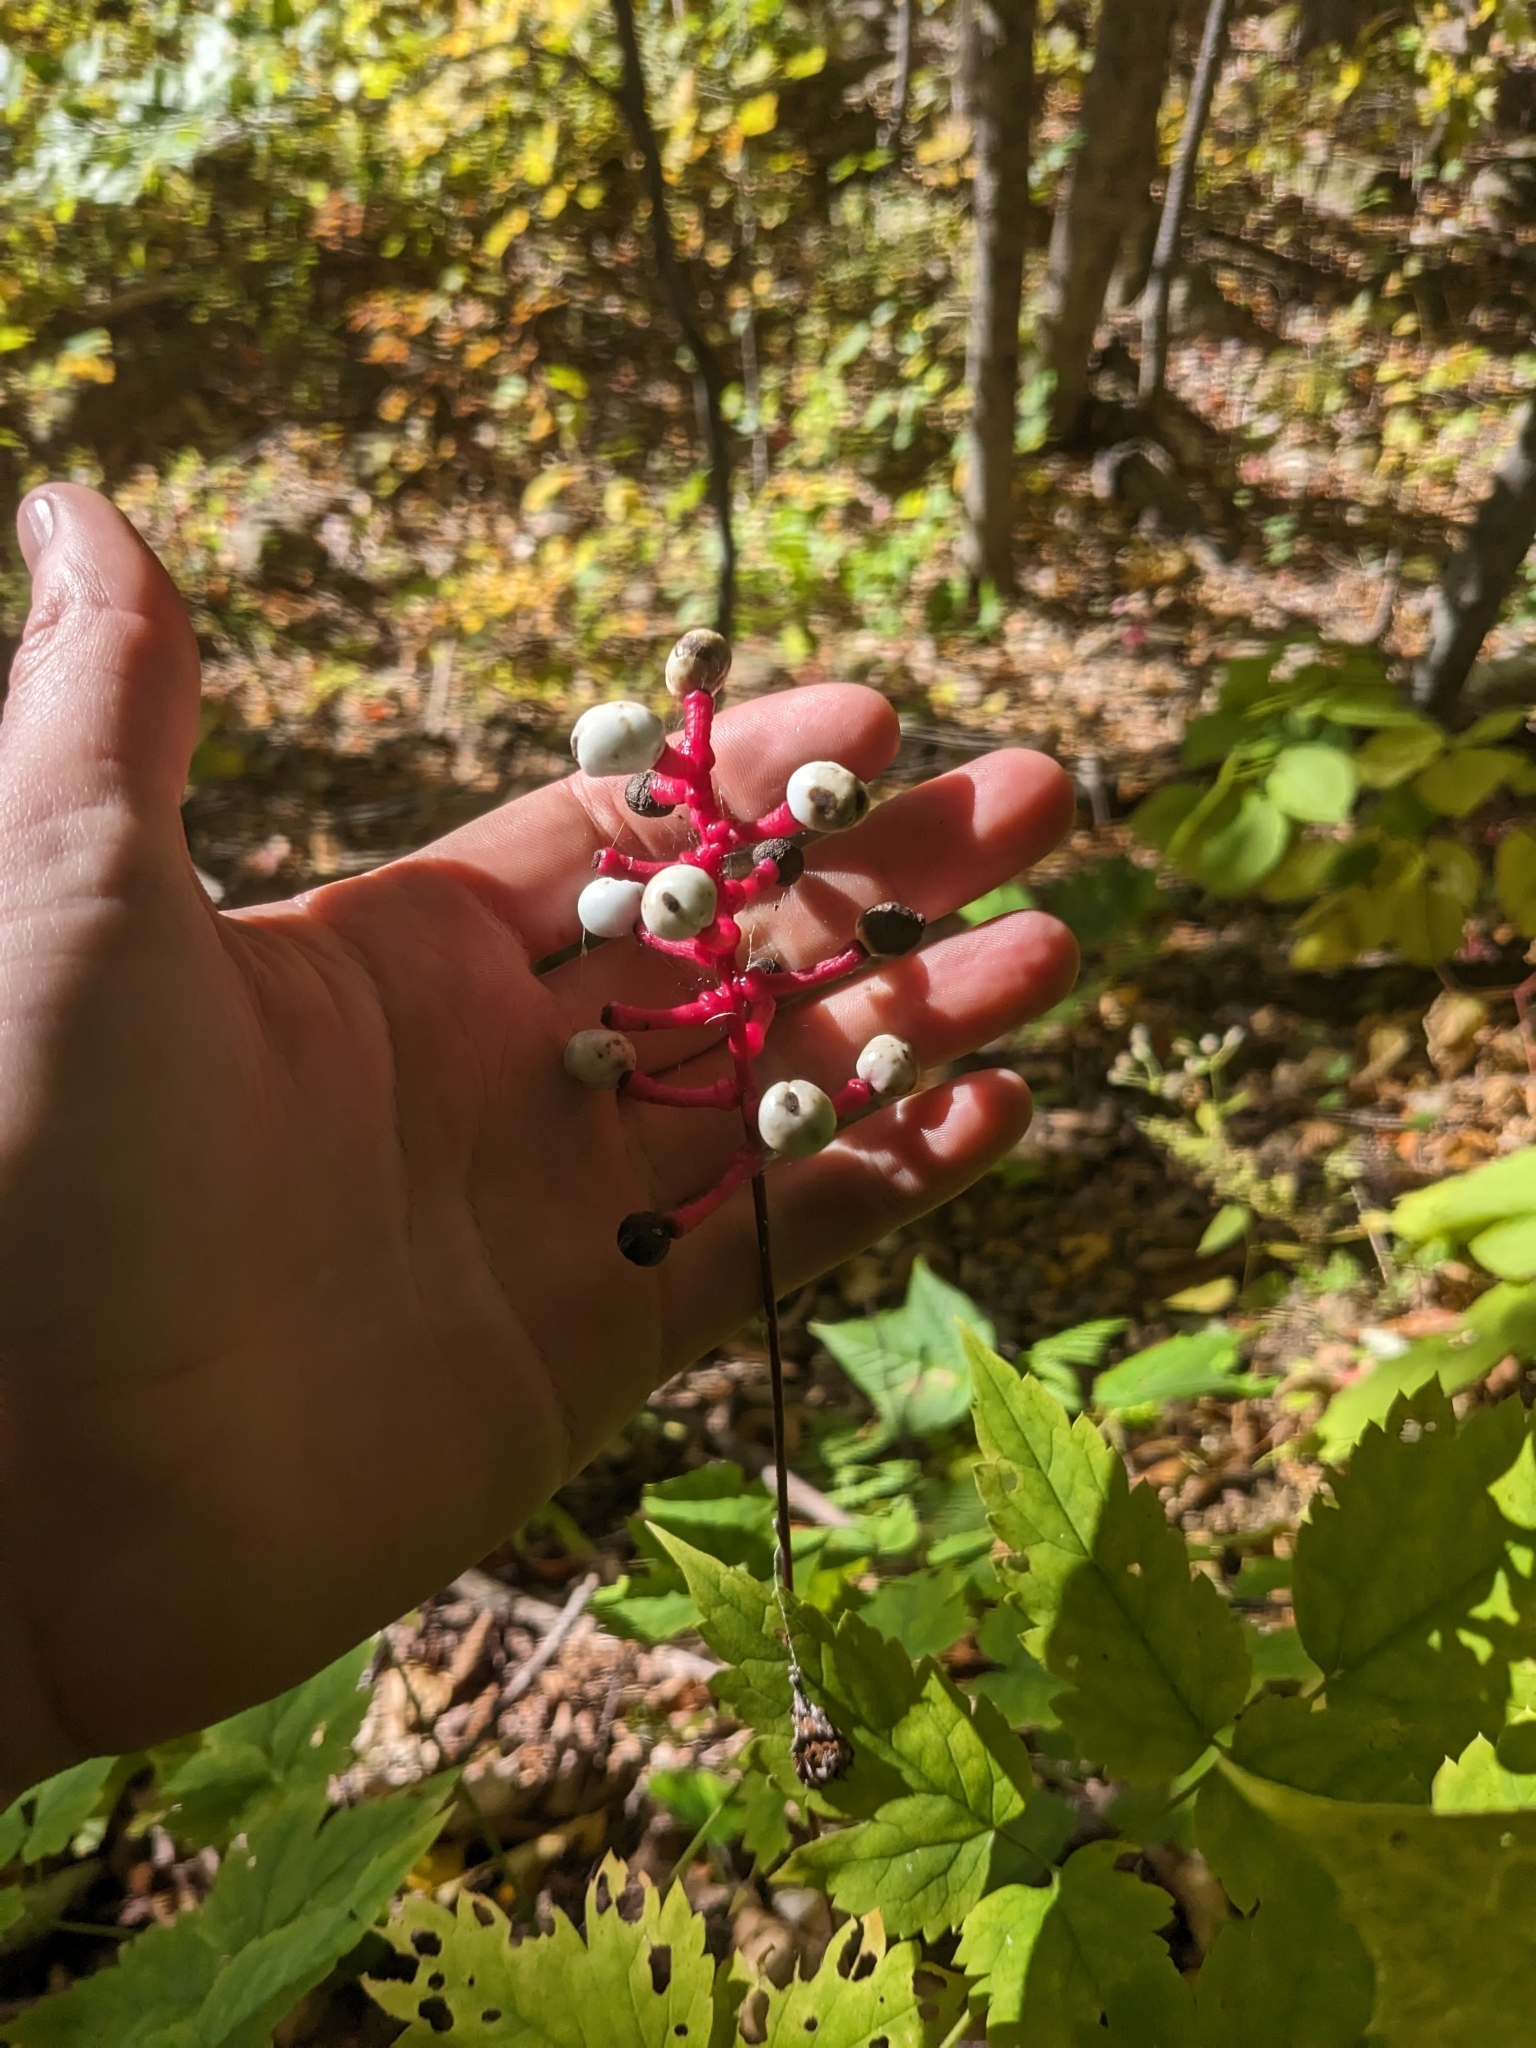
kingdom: Plantae
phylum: Tracheophyta
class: Magnoliopsida
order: Ranunculales
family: Ranunculaceae
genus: Actaea
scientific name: Actaea pachypoda
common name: Doll's-eyes
